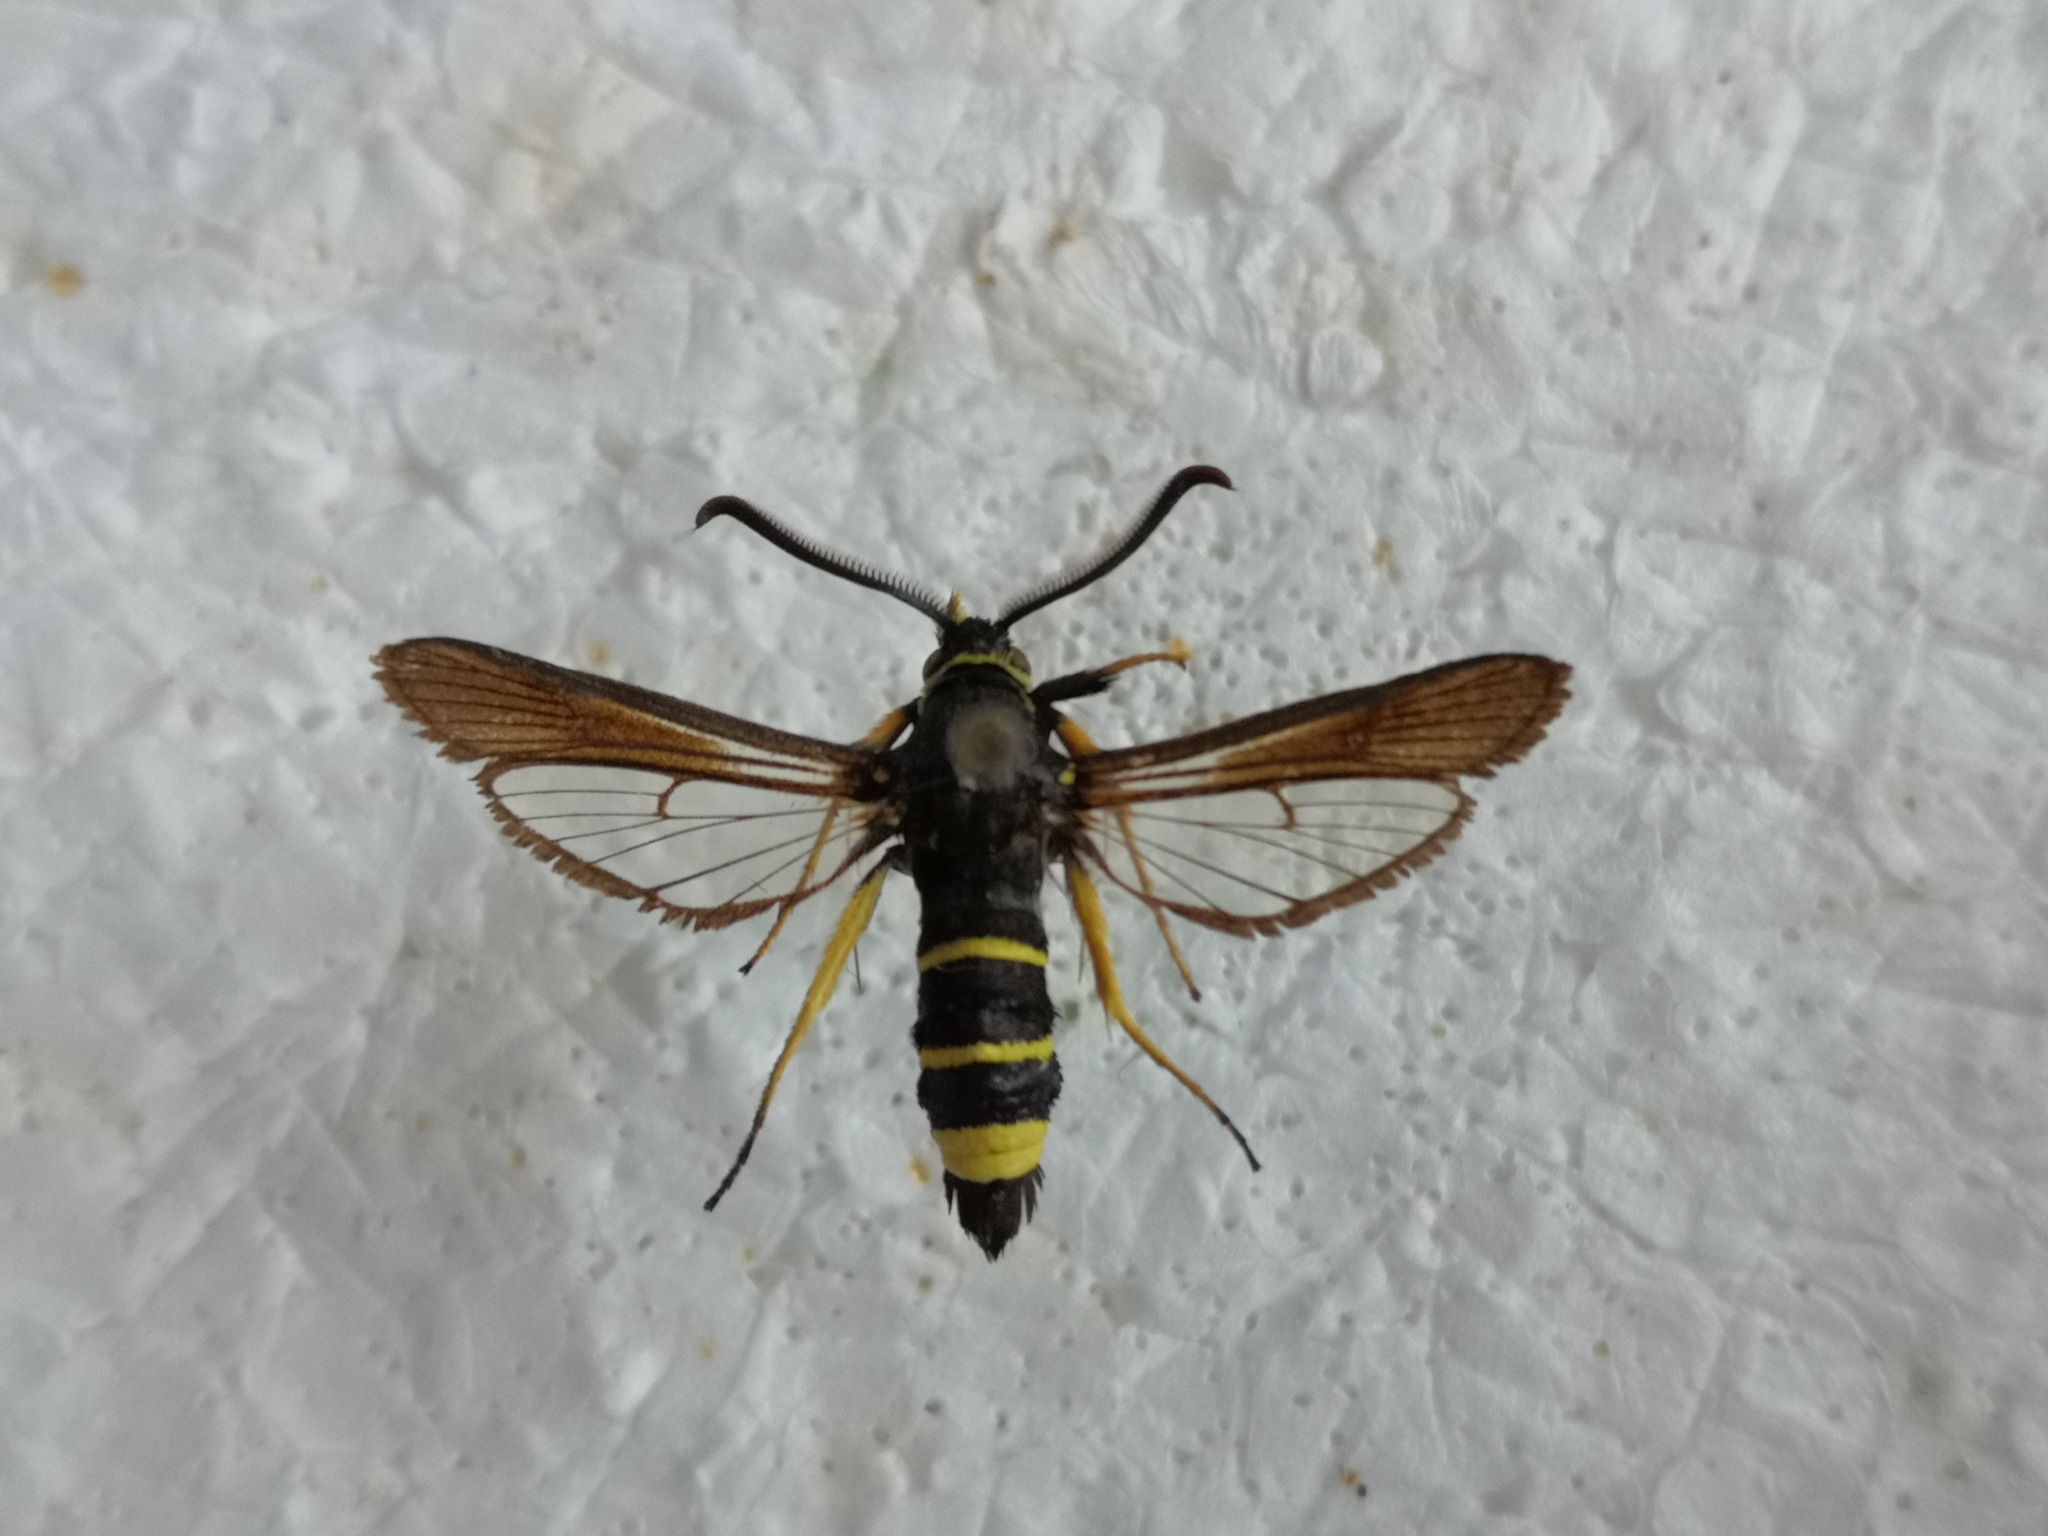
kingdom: Animalia
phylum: Arthropoda
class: Insecta
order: Lepidoptera
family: Sesiidae
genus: Paranthrene
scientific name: Paranthrene tabaniformis
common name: Dusky clearwing
